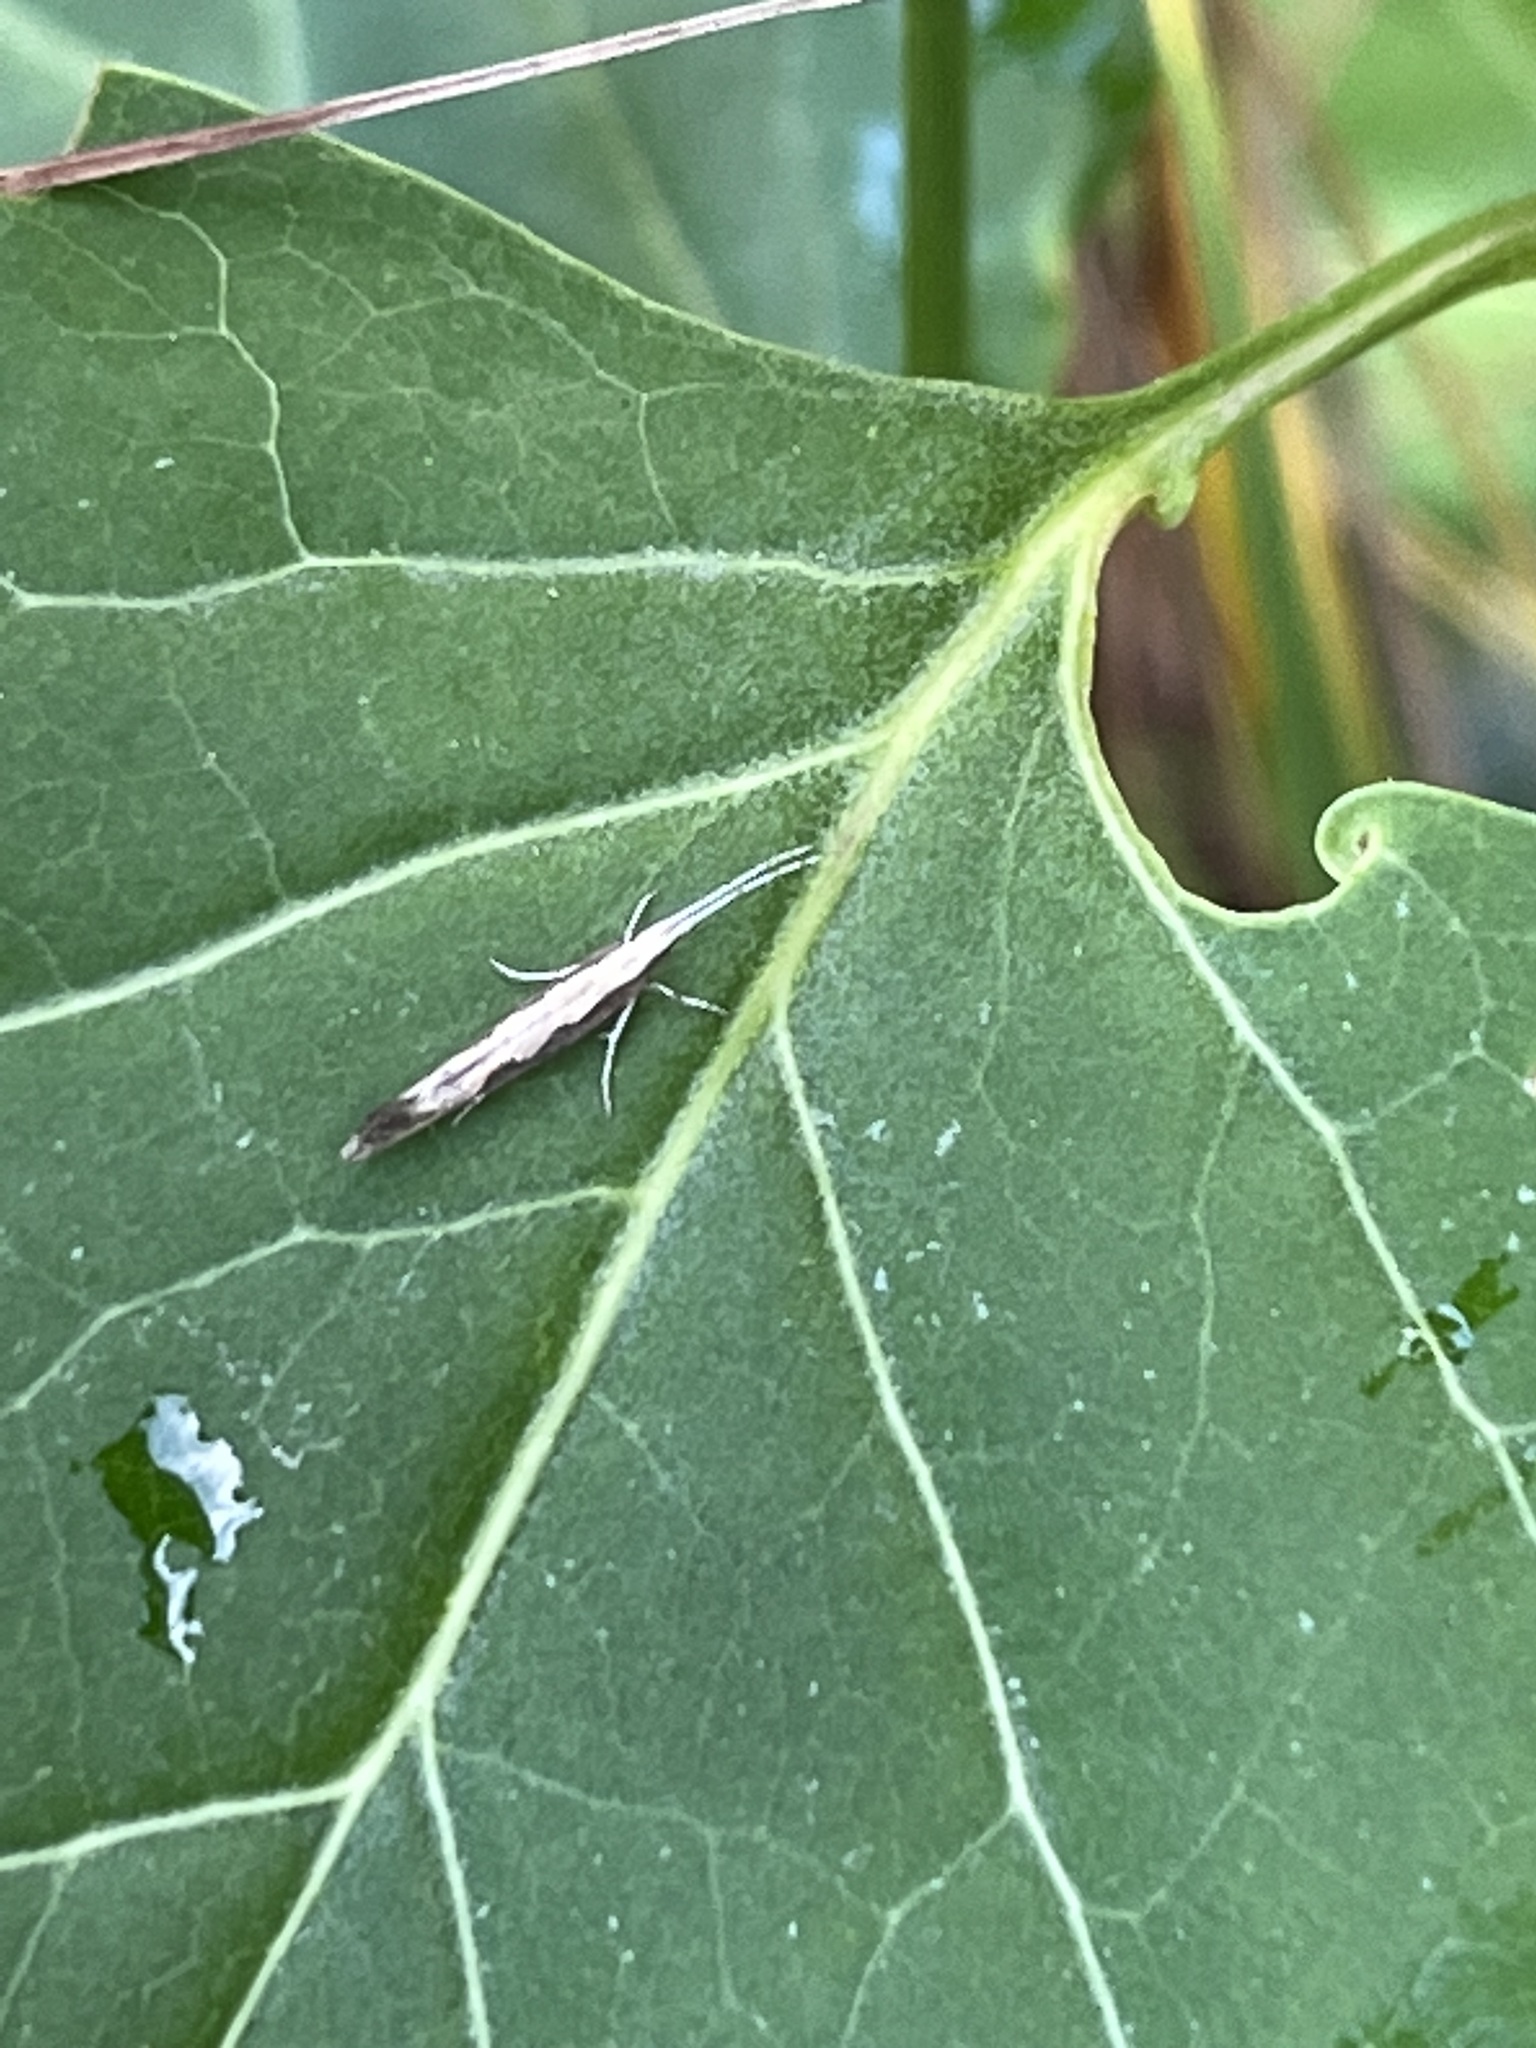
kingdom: Animalia
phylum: Arthropoda
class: Insecta
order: Lepidoptera
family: Plutellidae
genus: Plutella
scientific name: Plutella xylostella
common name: Diamond-back moth
